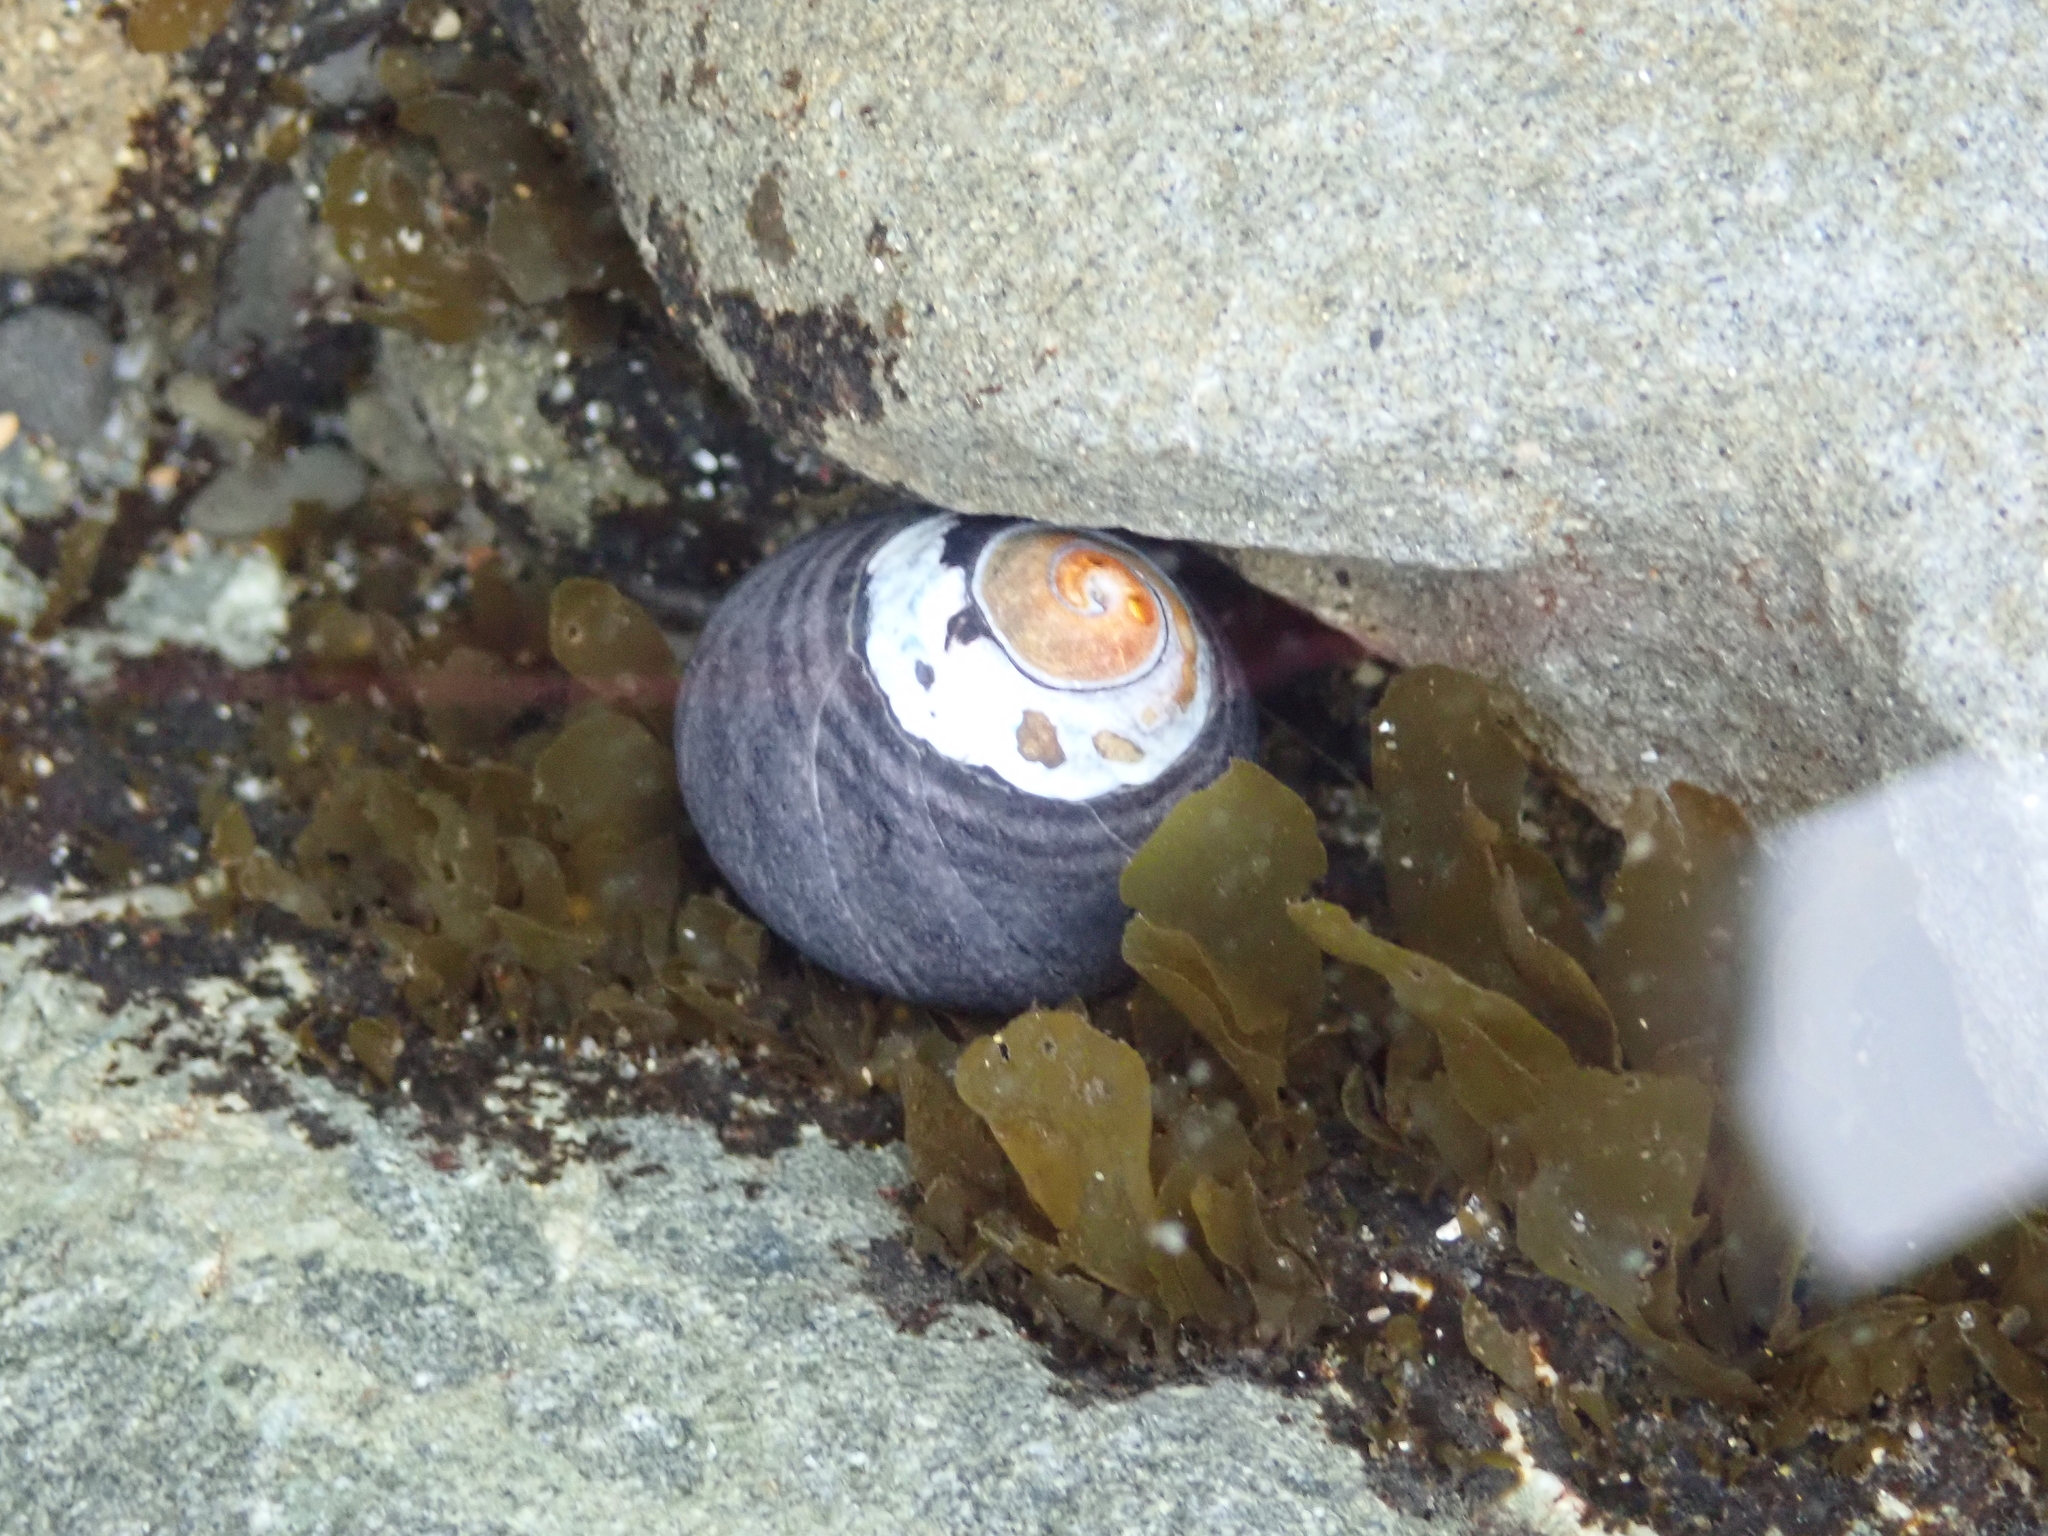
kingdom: Animalia
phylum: Mollusca
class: Gastropoda
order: Trochida
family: Tegulidae
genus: Tegula
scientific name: Tegula funebralis
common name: Black tegula
